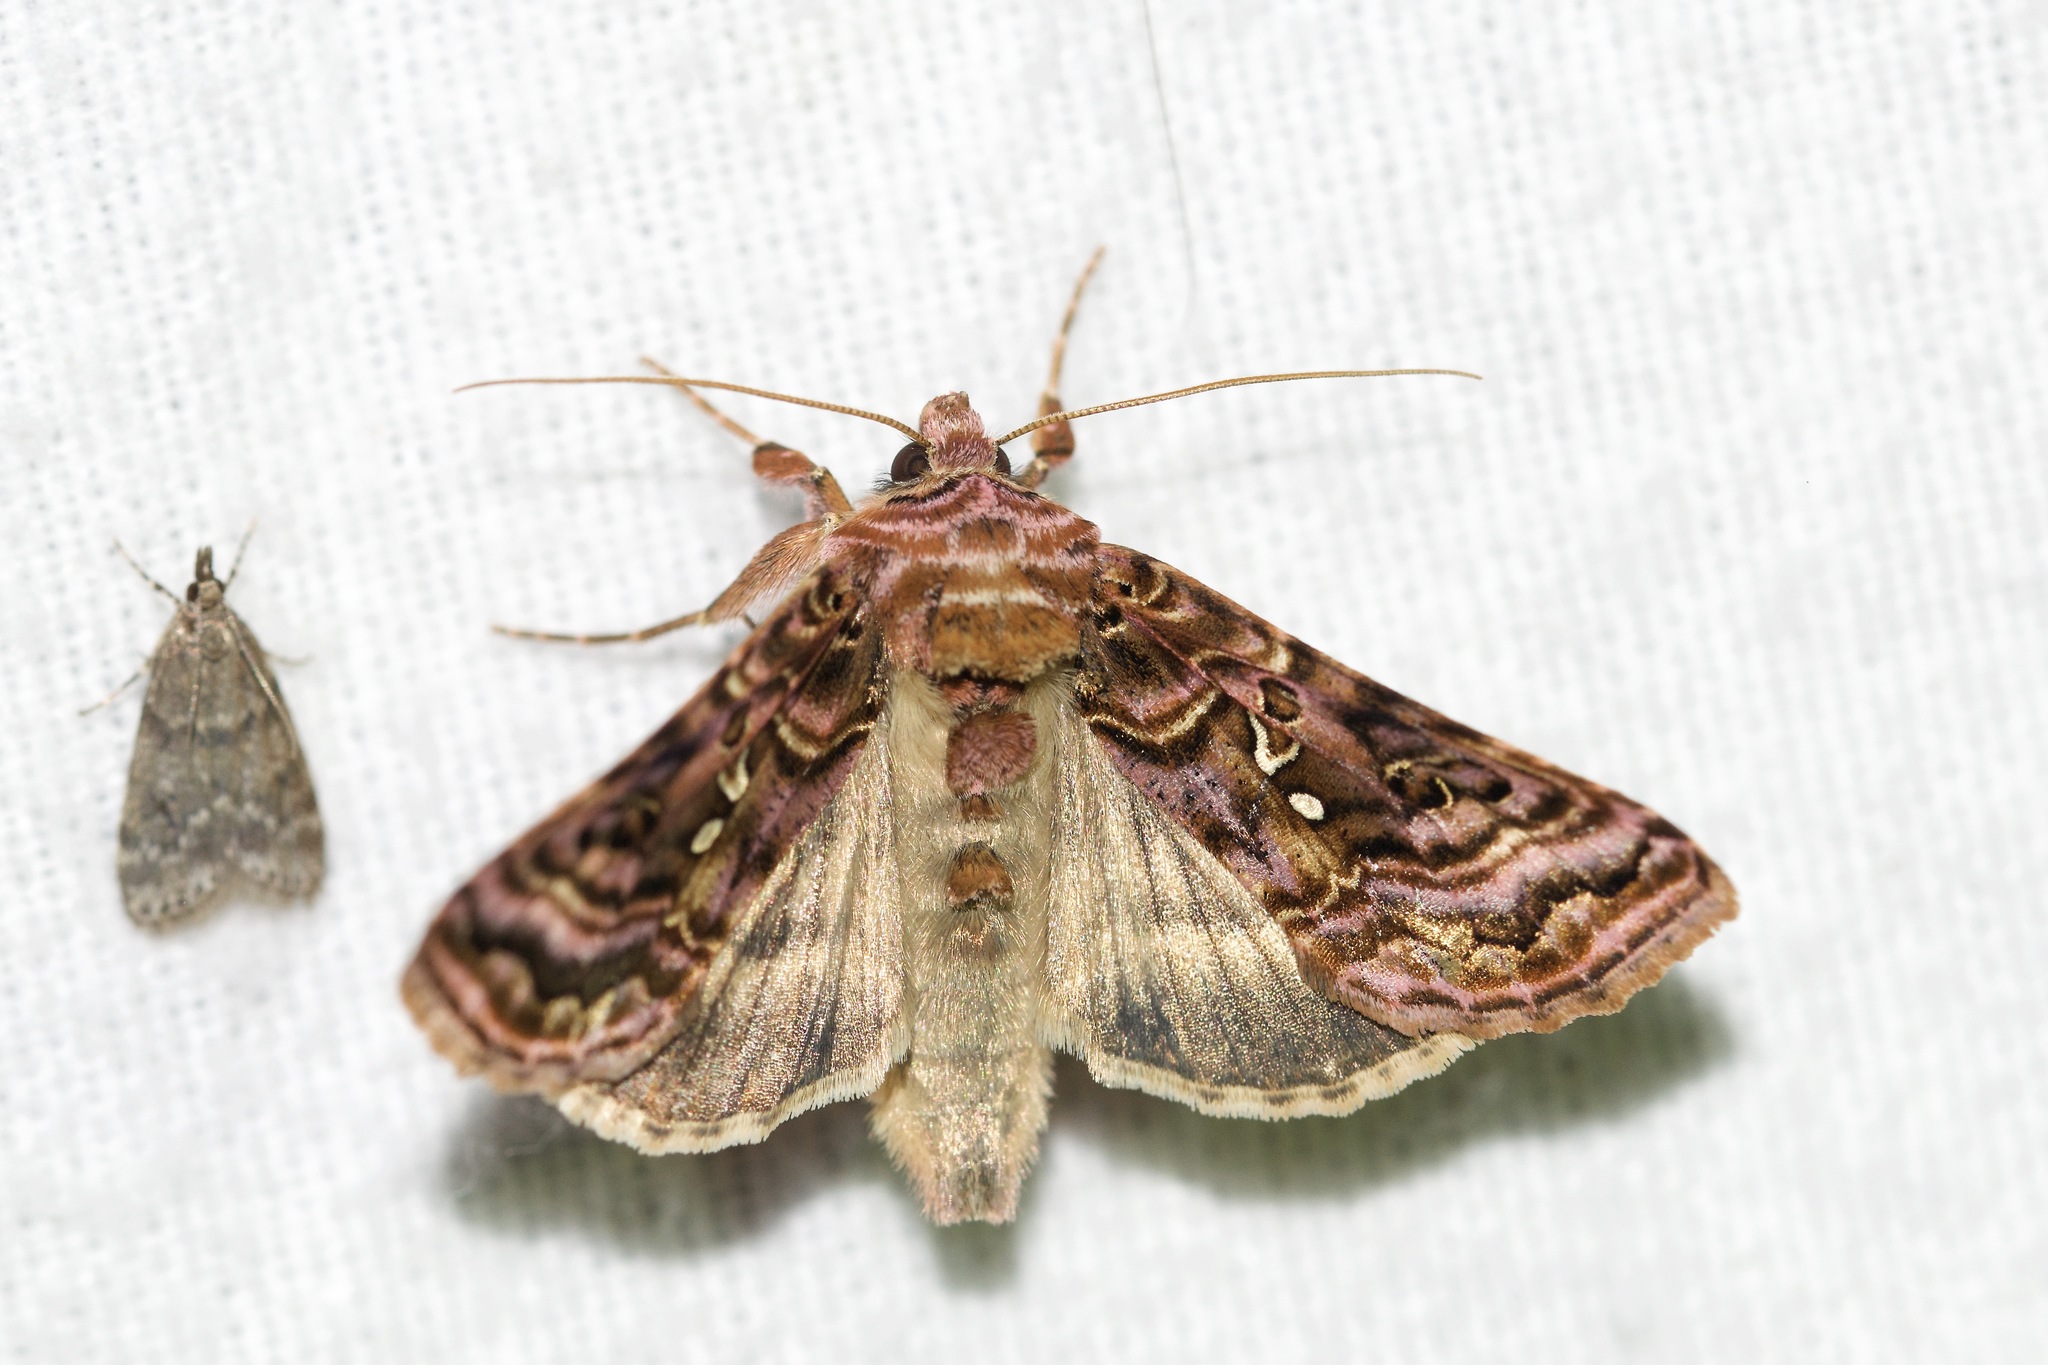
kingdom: Animalia
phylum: Arthropoda
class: Insecta
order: Lepidoptera
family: Noctuidae
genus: Autographa
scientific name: Autographa mappa
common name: Wavy chestnut y moth
